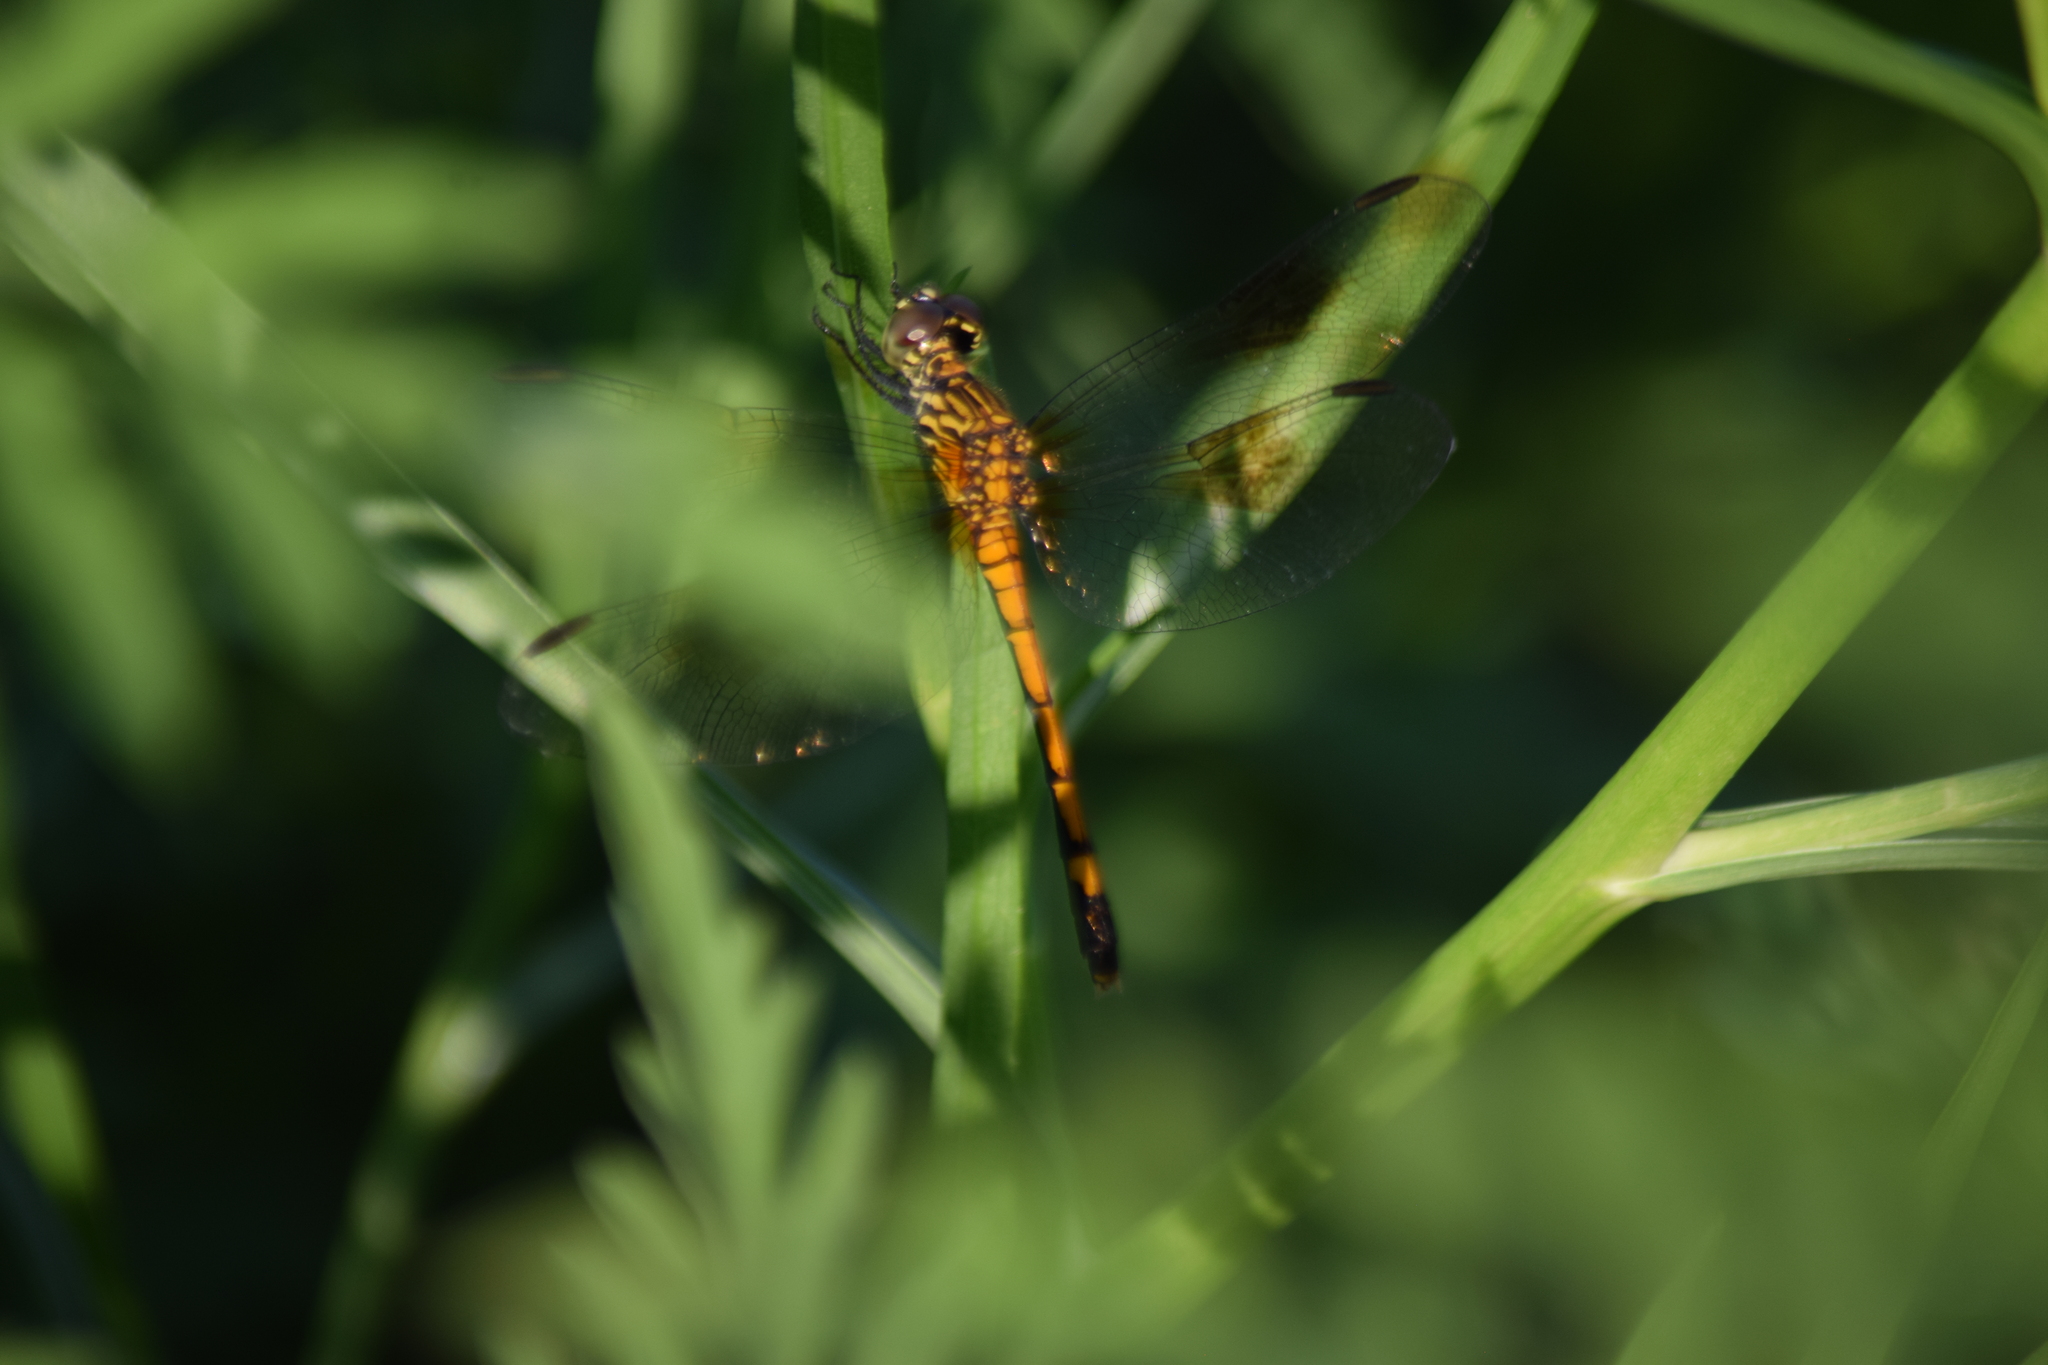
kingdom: Animalia
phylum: Arthropoda
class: Insecta
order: Odonata
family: Libellulidae
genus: Erythrodiplax
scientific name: Erythrodiplax berenice
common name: Seaside dragonlet
